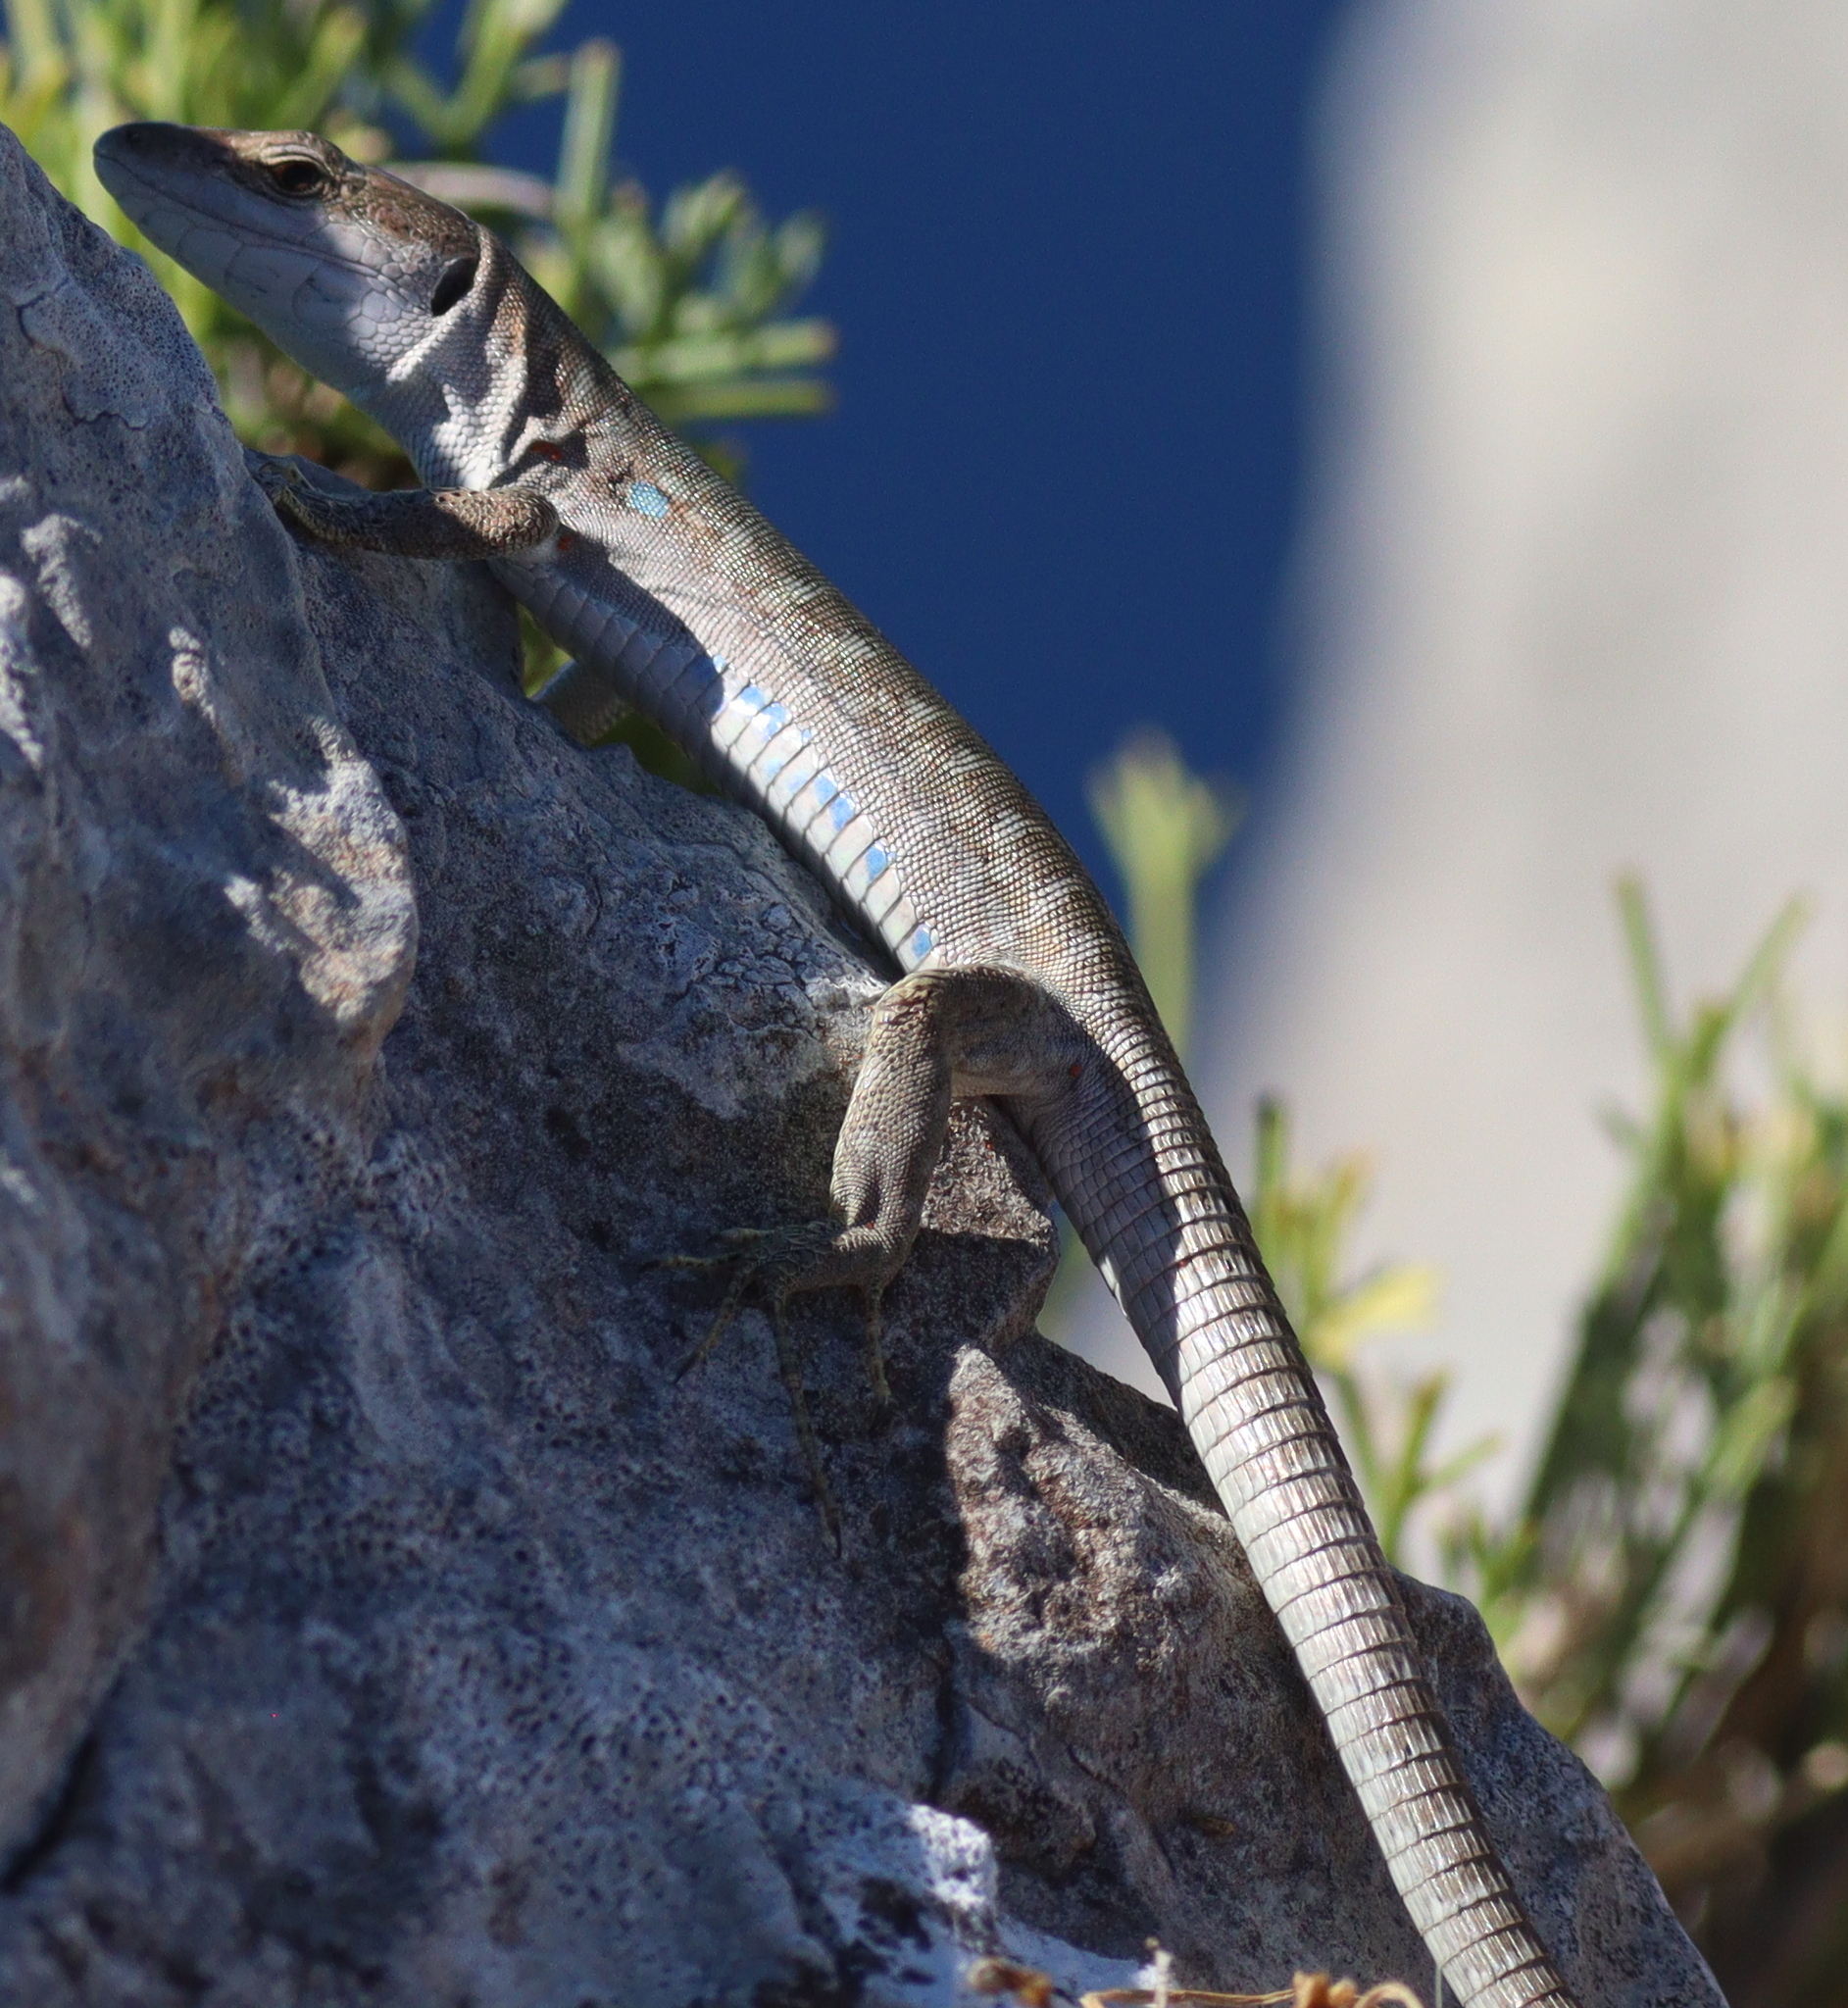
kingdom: Animalia
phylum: Chordata
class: Squamata
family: Lacertidae
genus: Podarcis
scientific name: Podarcis siculus
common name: Italian wall lizard
